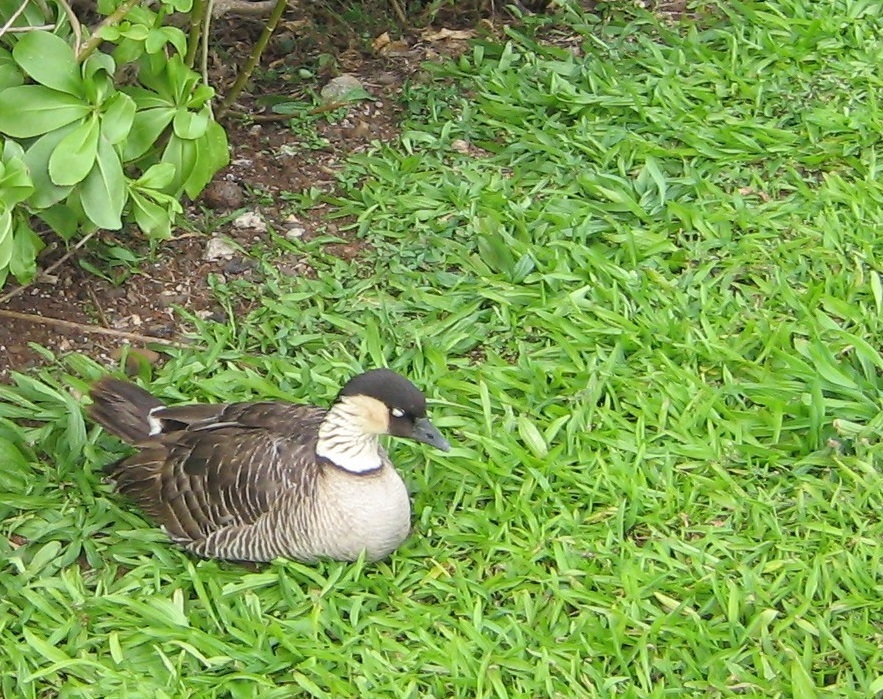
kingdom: Animalia
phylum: Chordata
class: Aves
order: Anseriformes
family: Anatidae
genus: Branta
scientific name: Branta sandvicensis
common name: Nene
